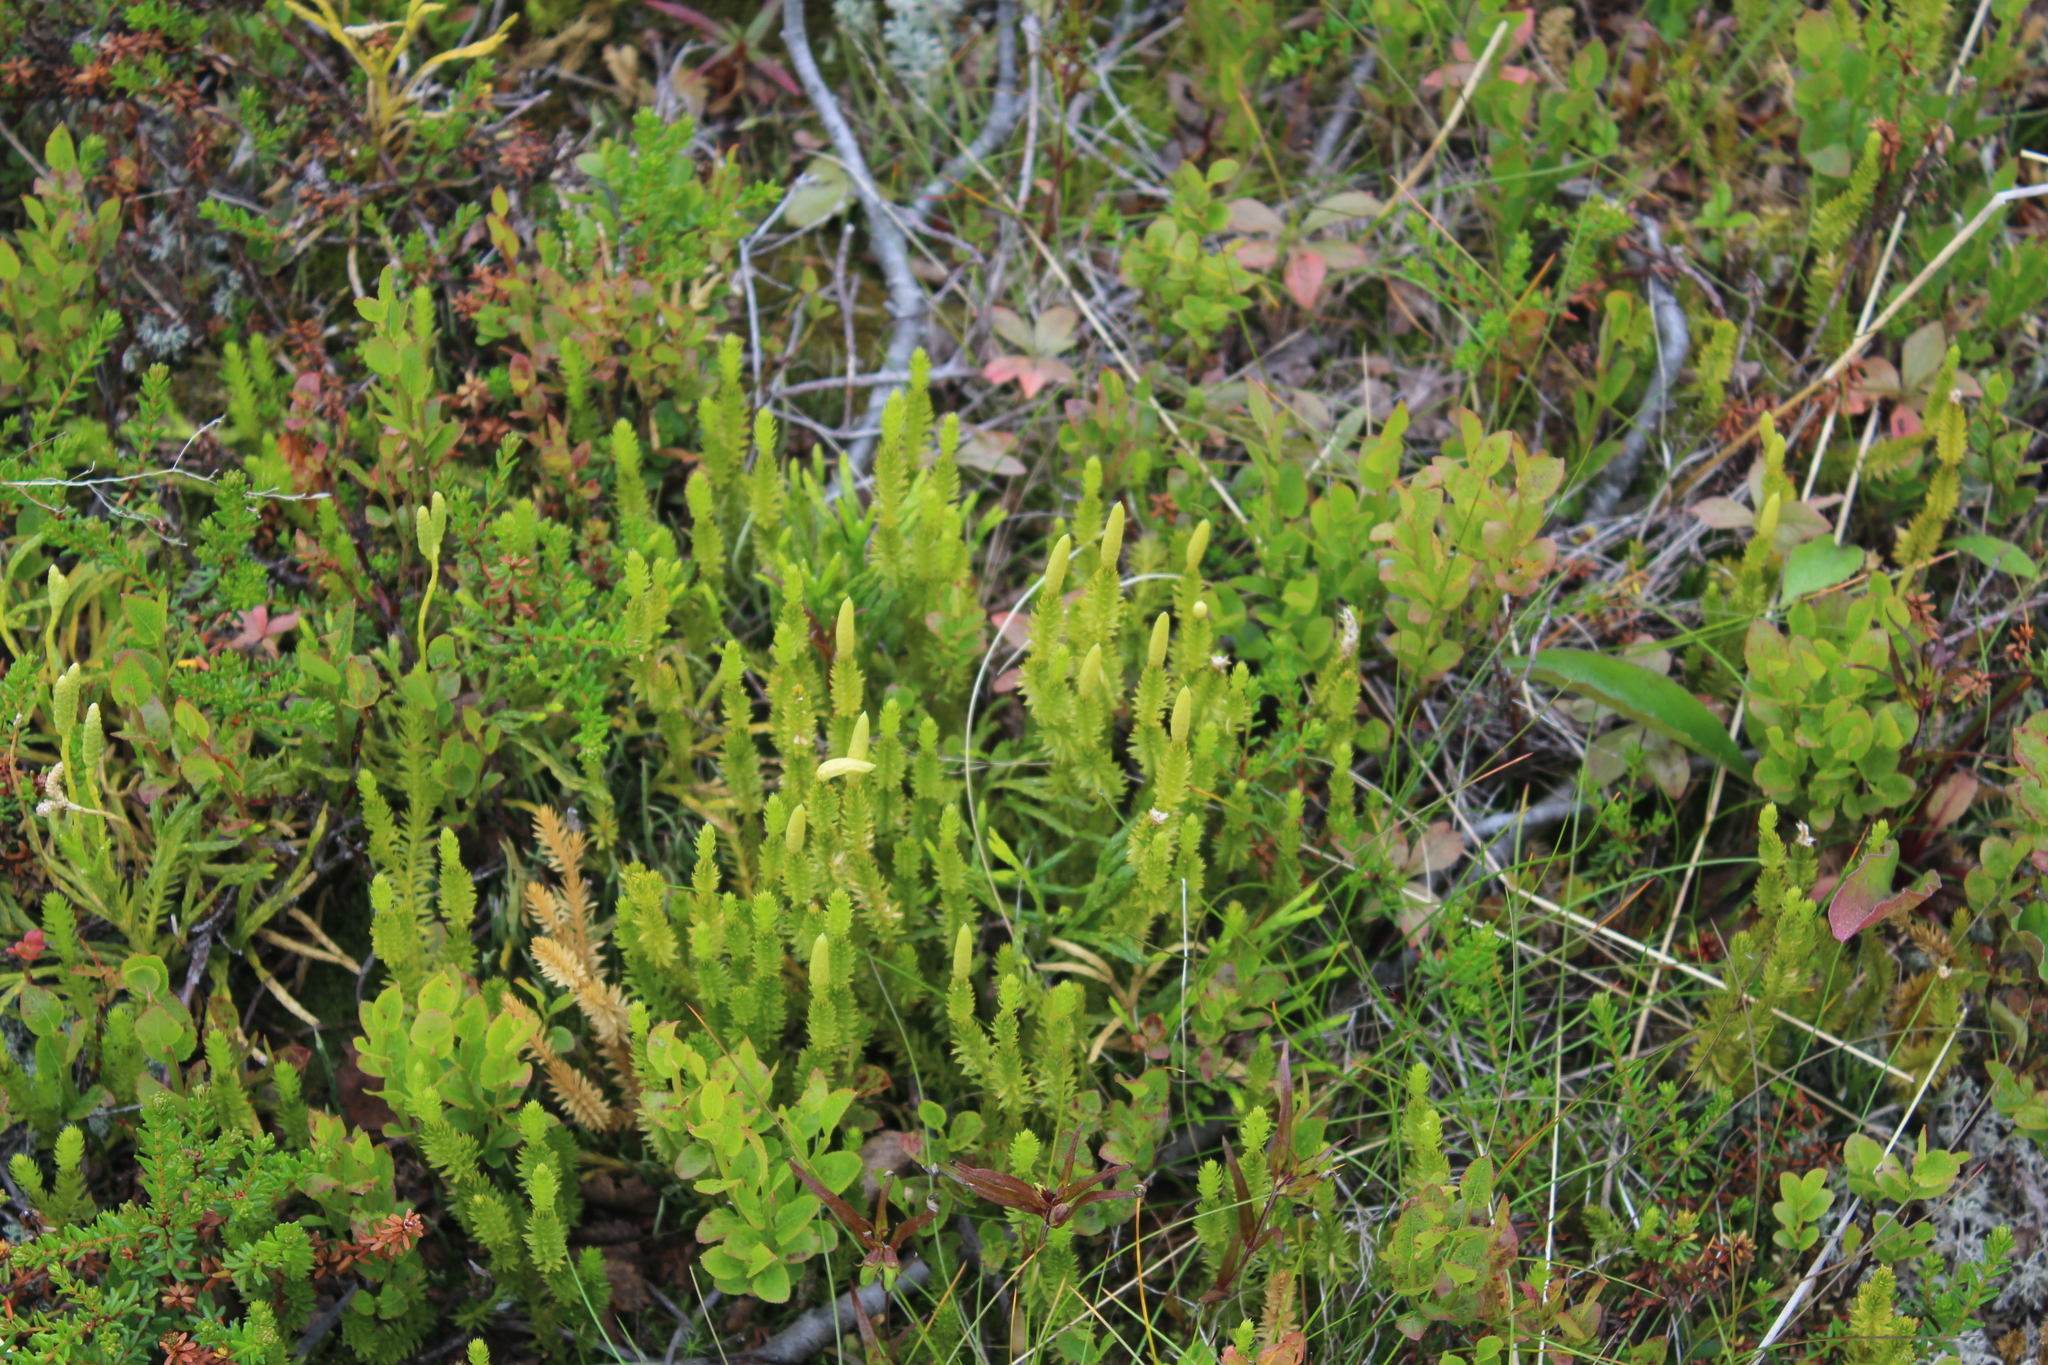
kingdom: Plantae
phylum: Tracheophyta
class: Lycopodiopsida
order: Lycopodiales
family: Lycopodiaceae
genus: Spinulum
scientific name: Spinulum annotinum
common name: Interrupted club-moss
